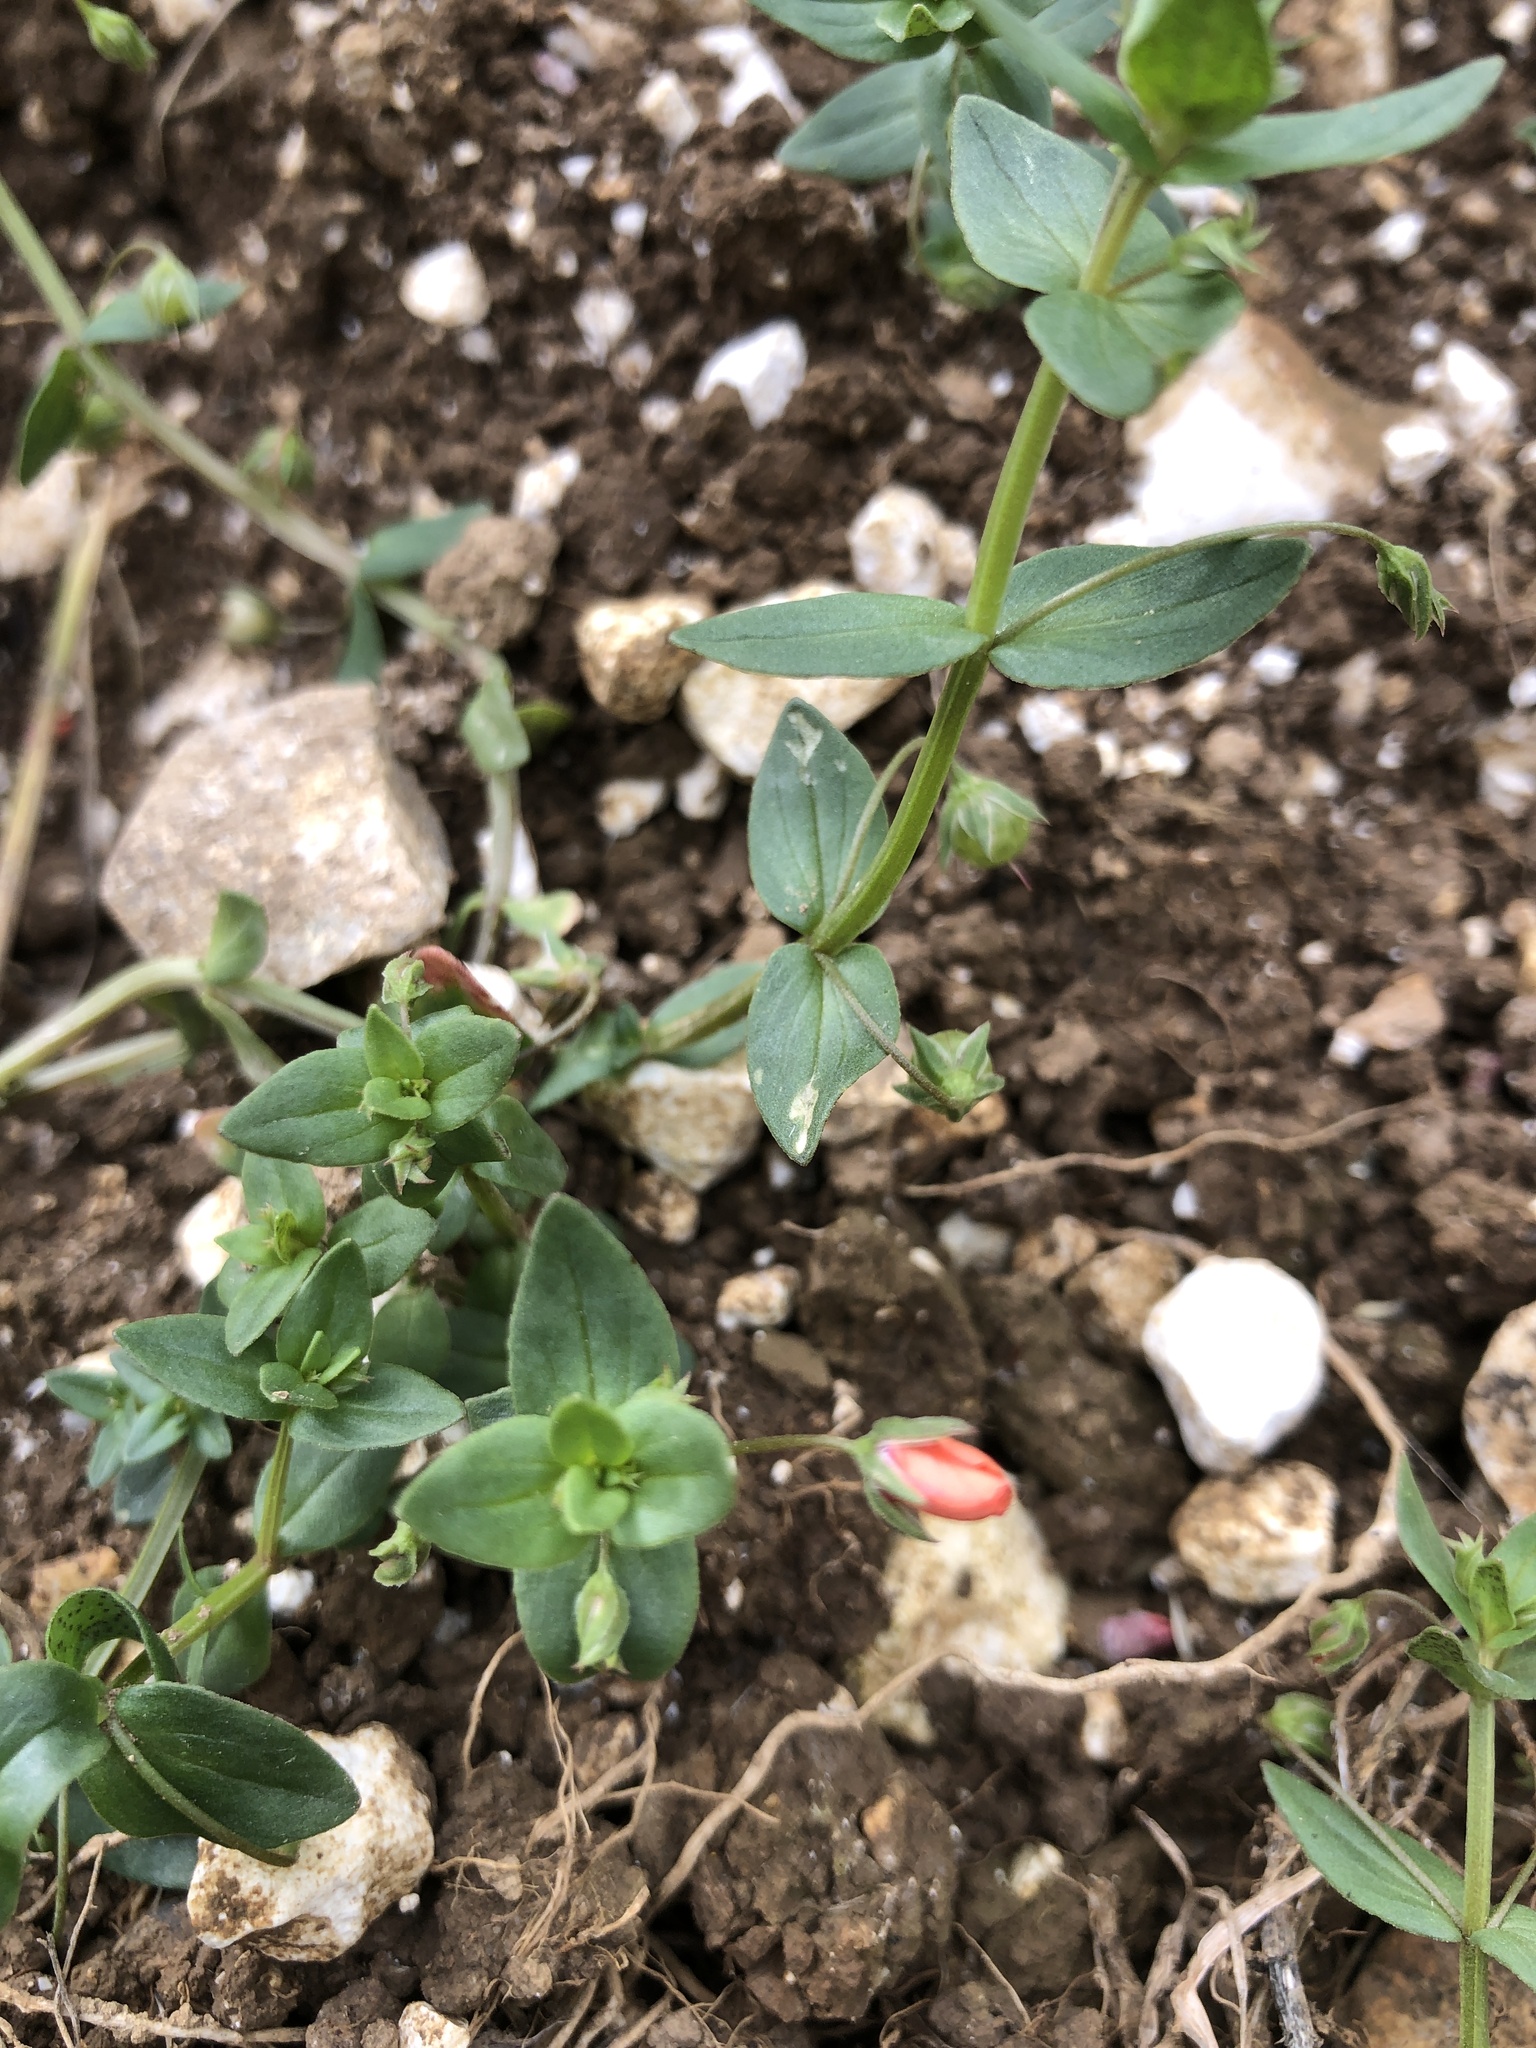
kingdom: Plantae
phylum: Tracheophyta
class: Magnoliopsida
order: Ericales
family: Primulaceae
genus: Lysimachia
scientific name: Lysimachia arvensis
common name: Scarlet pimpernel
